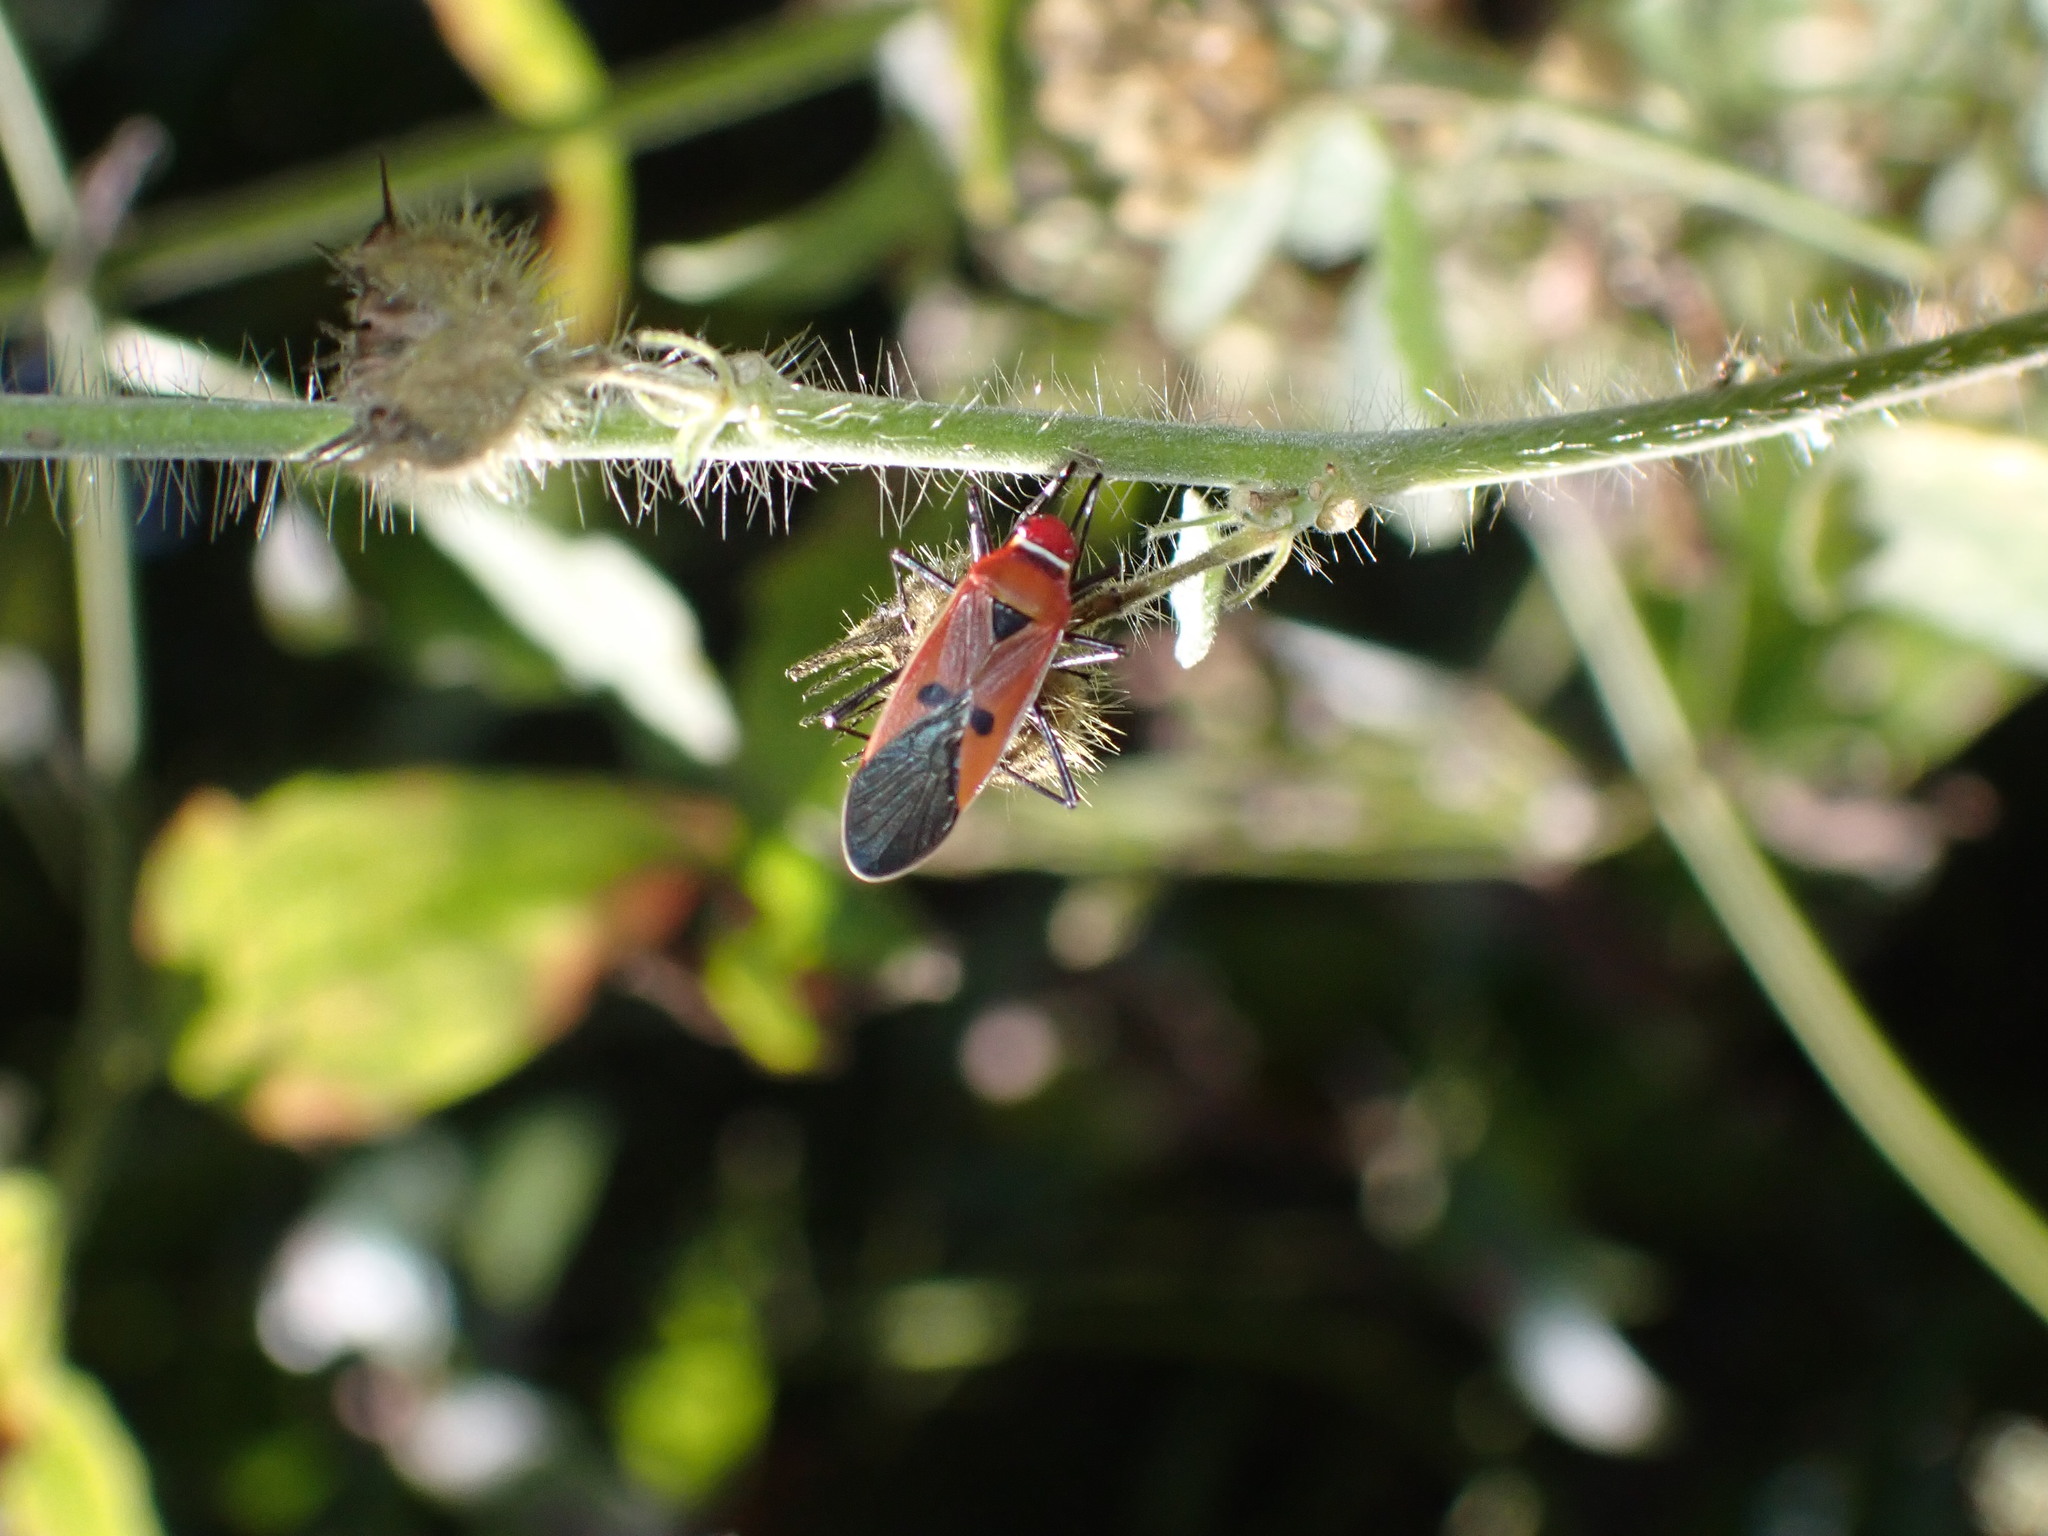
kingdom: Animalia
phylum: Arthropoda
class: Insecta
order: Hemiptera
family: Pyrrhocoridae
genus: Dysdercus
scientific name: Dysdercus poecilus
